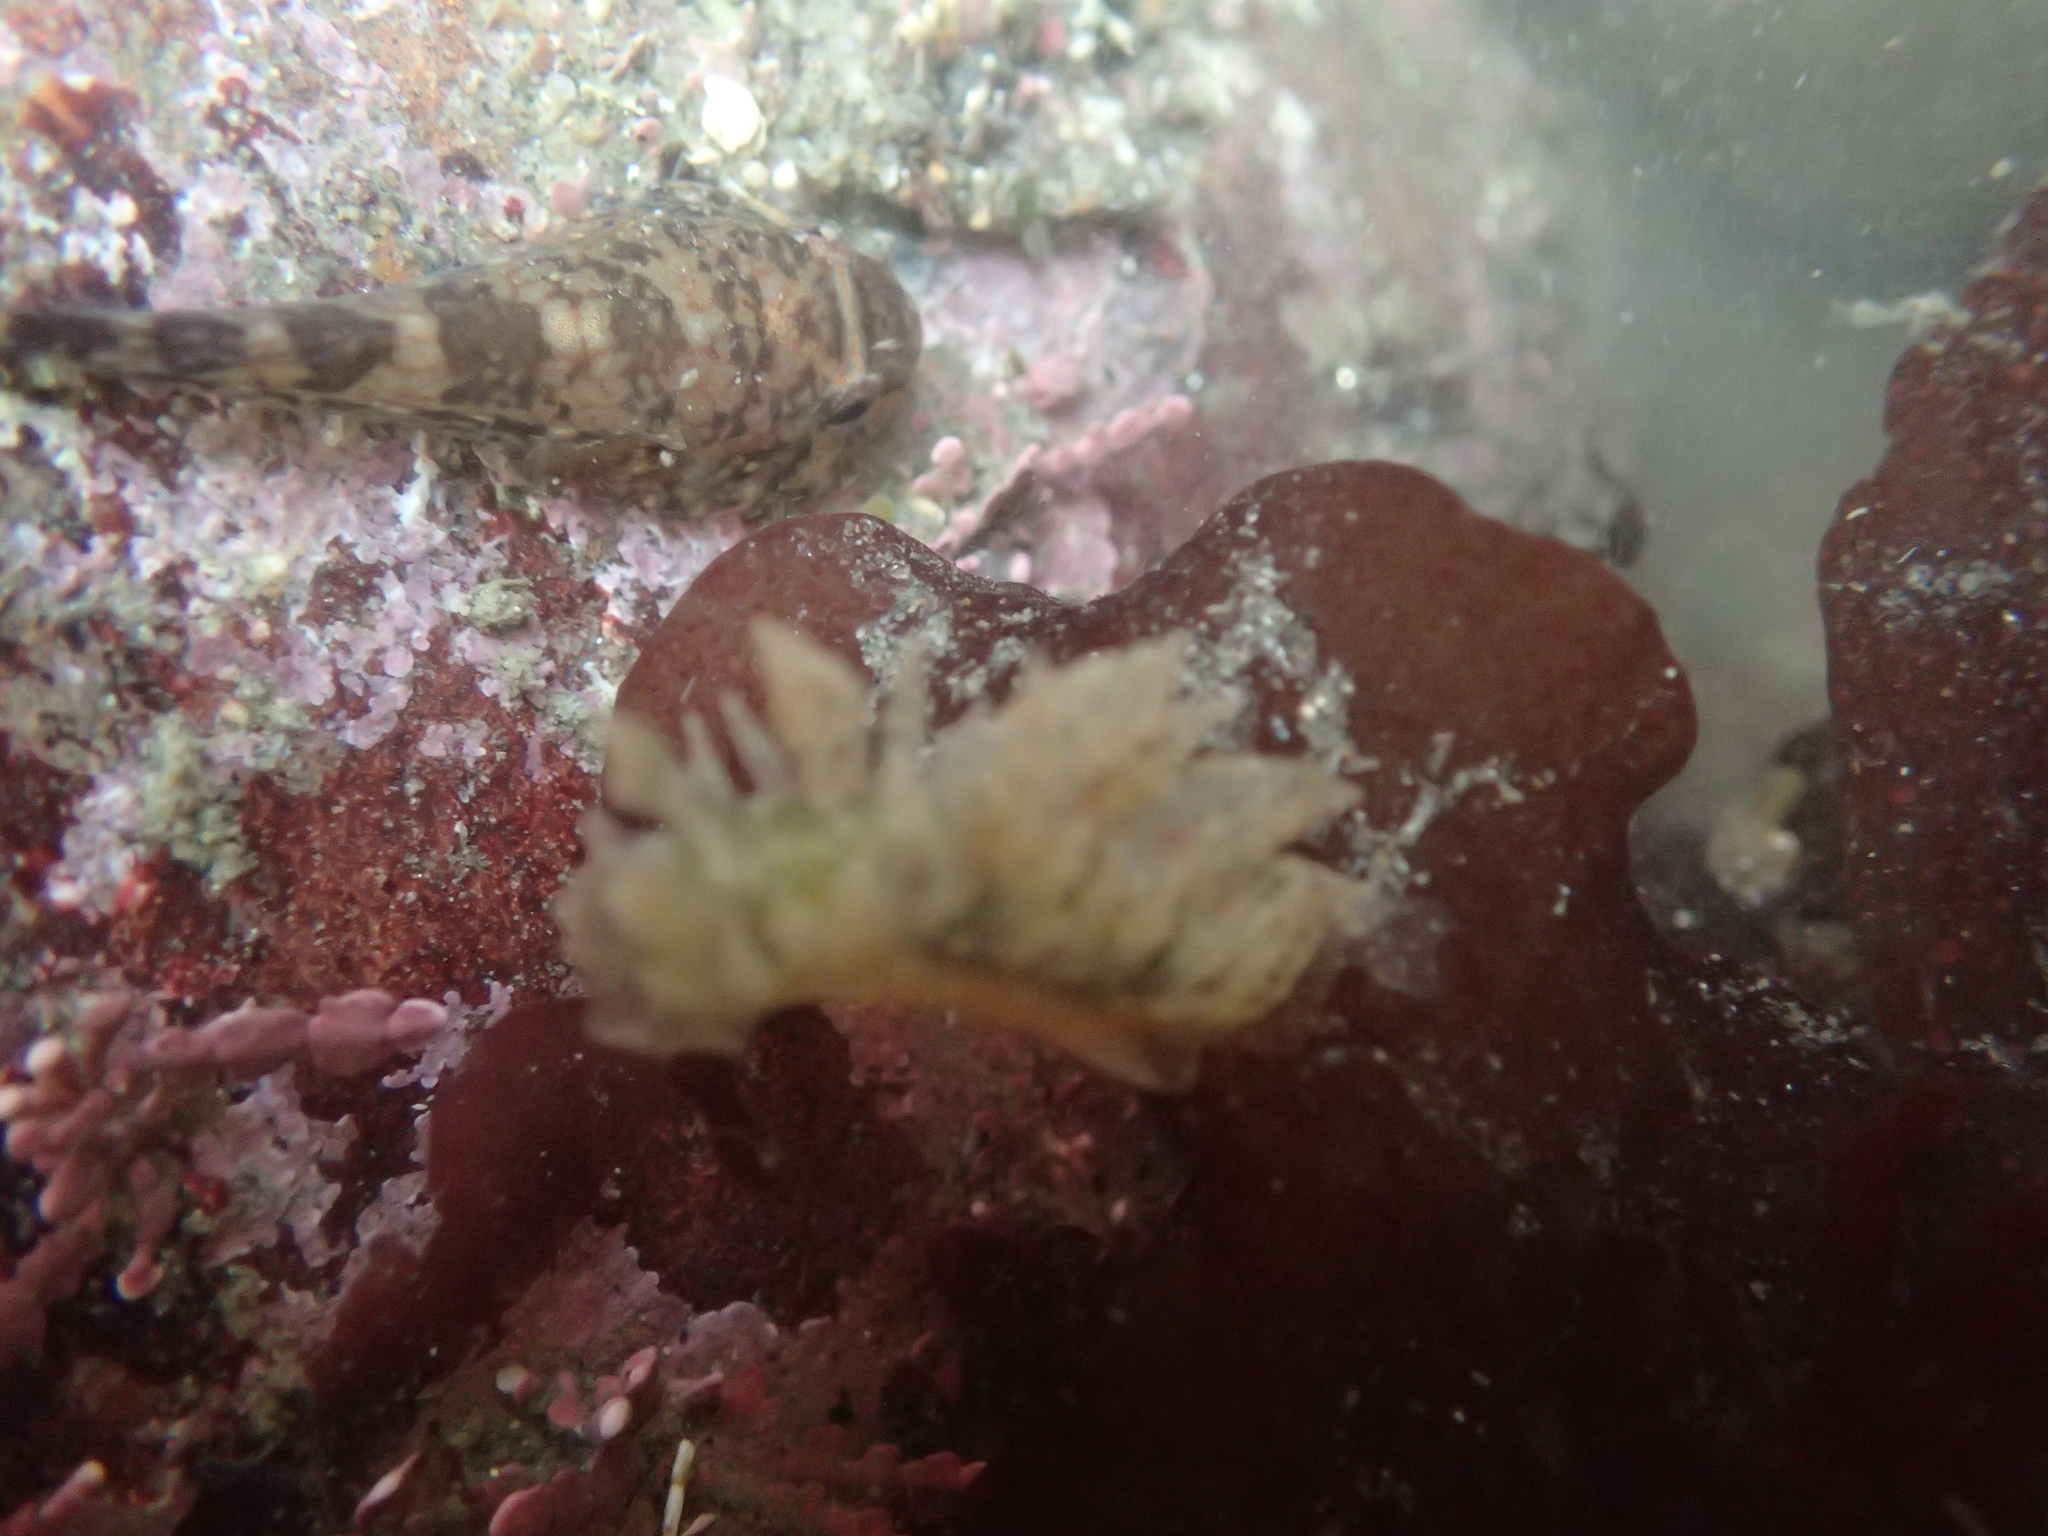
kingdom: Animalia
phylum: Chordata
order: Gobiesociformes
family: Gobiesocidae
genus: Gobiesox
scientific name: Gobiesox maeandricus
